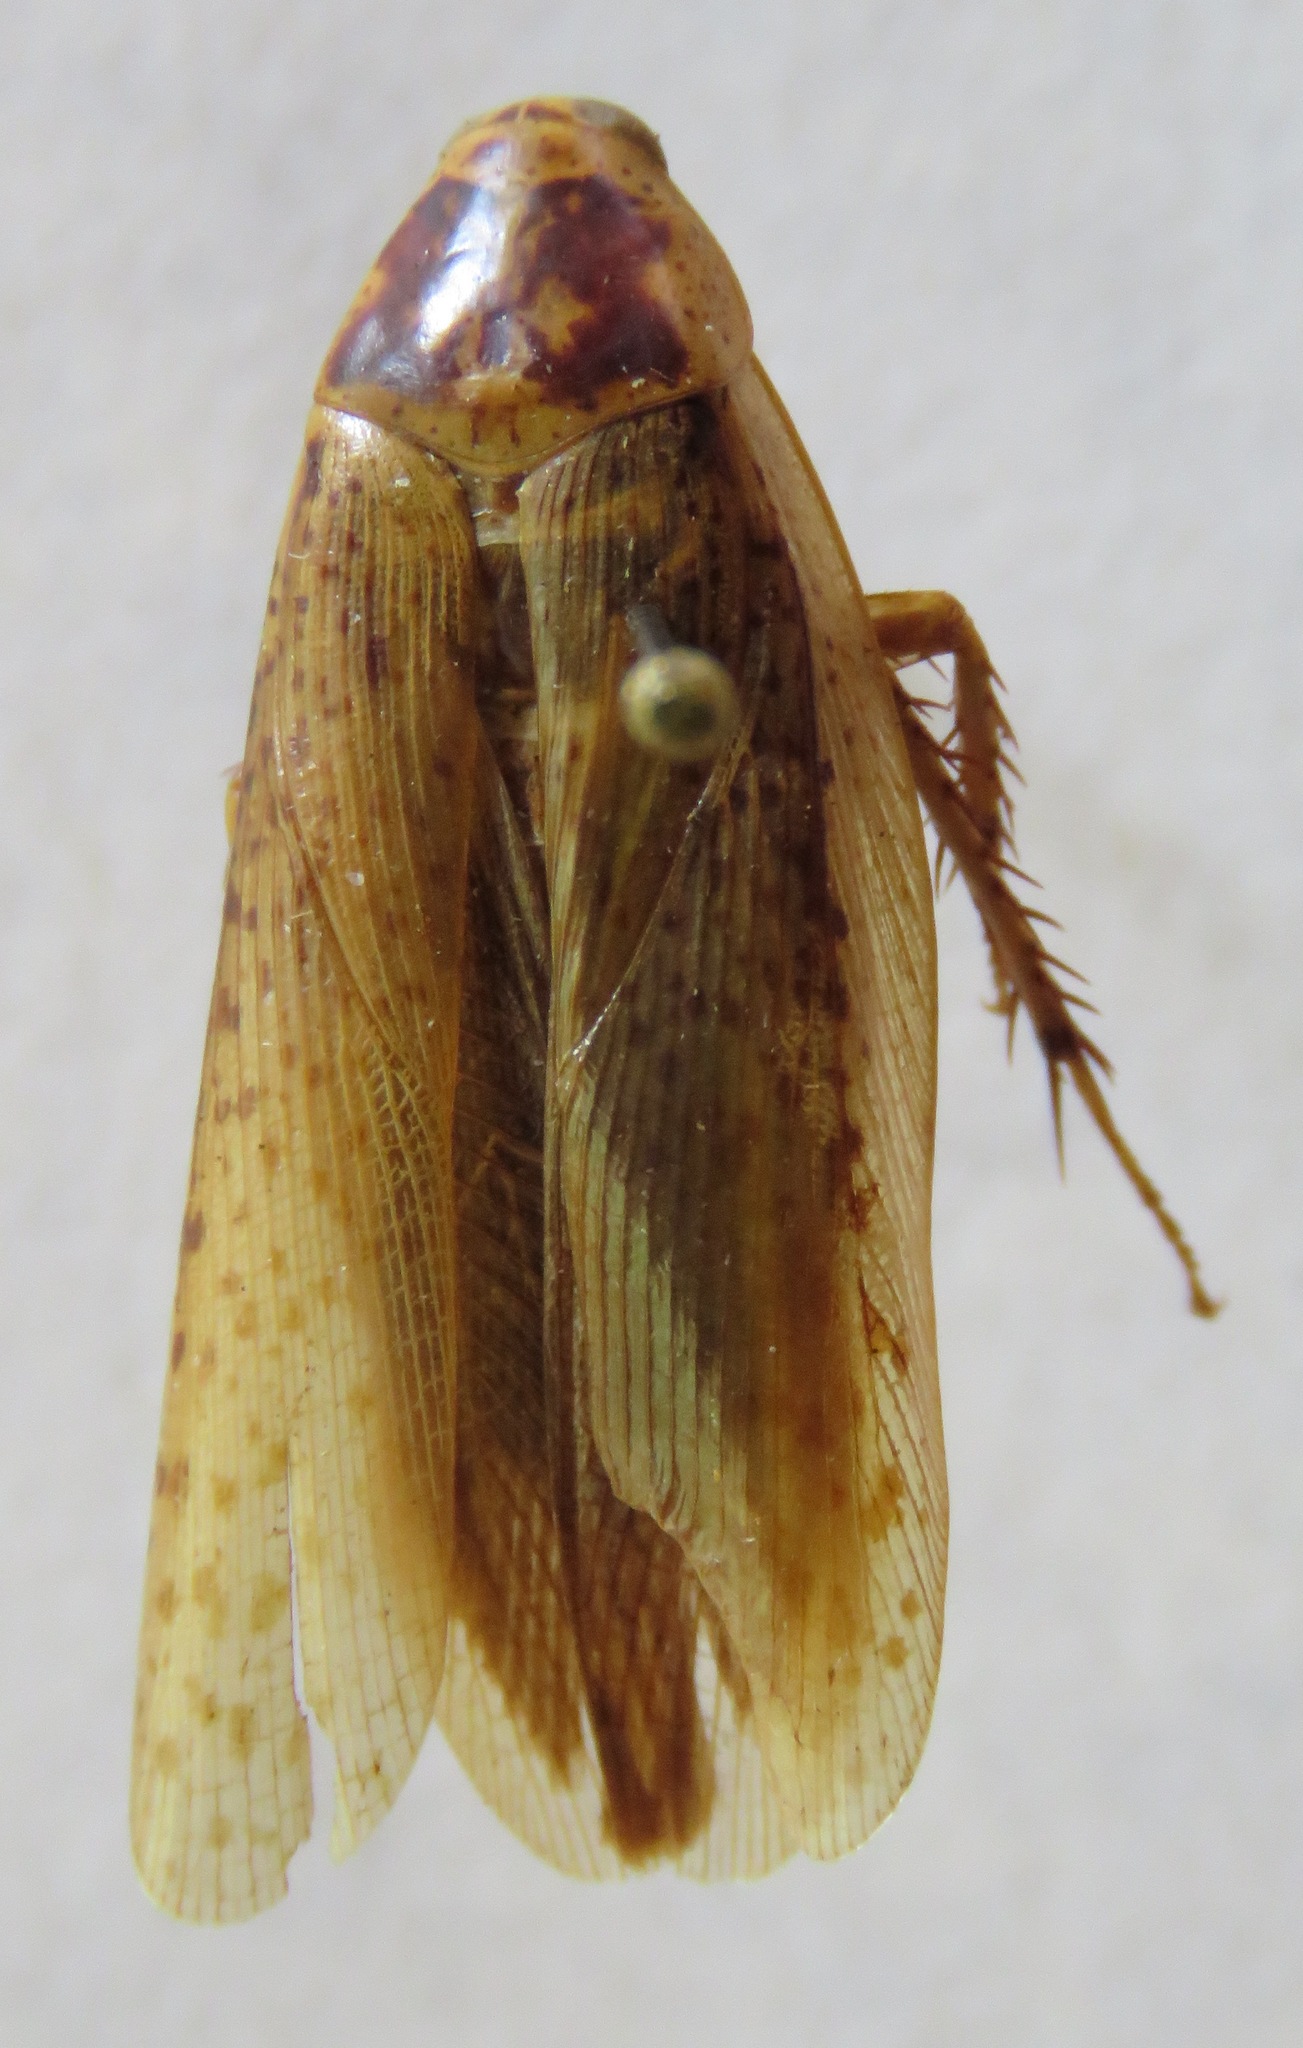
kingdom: Animalia
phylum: Arthropoda
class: Insecta
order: Blattodea
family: Blaberidae
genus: Epilampra
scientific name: Epilampra mexicana
